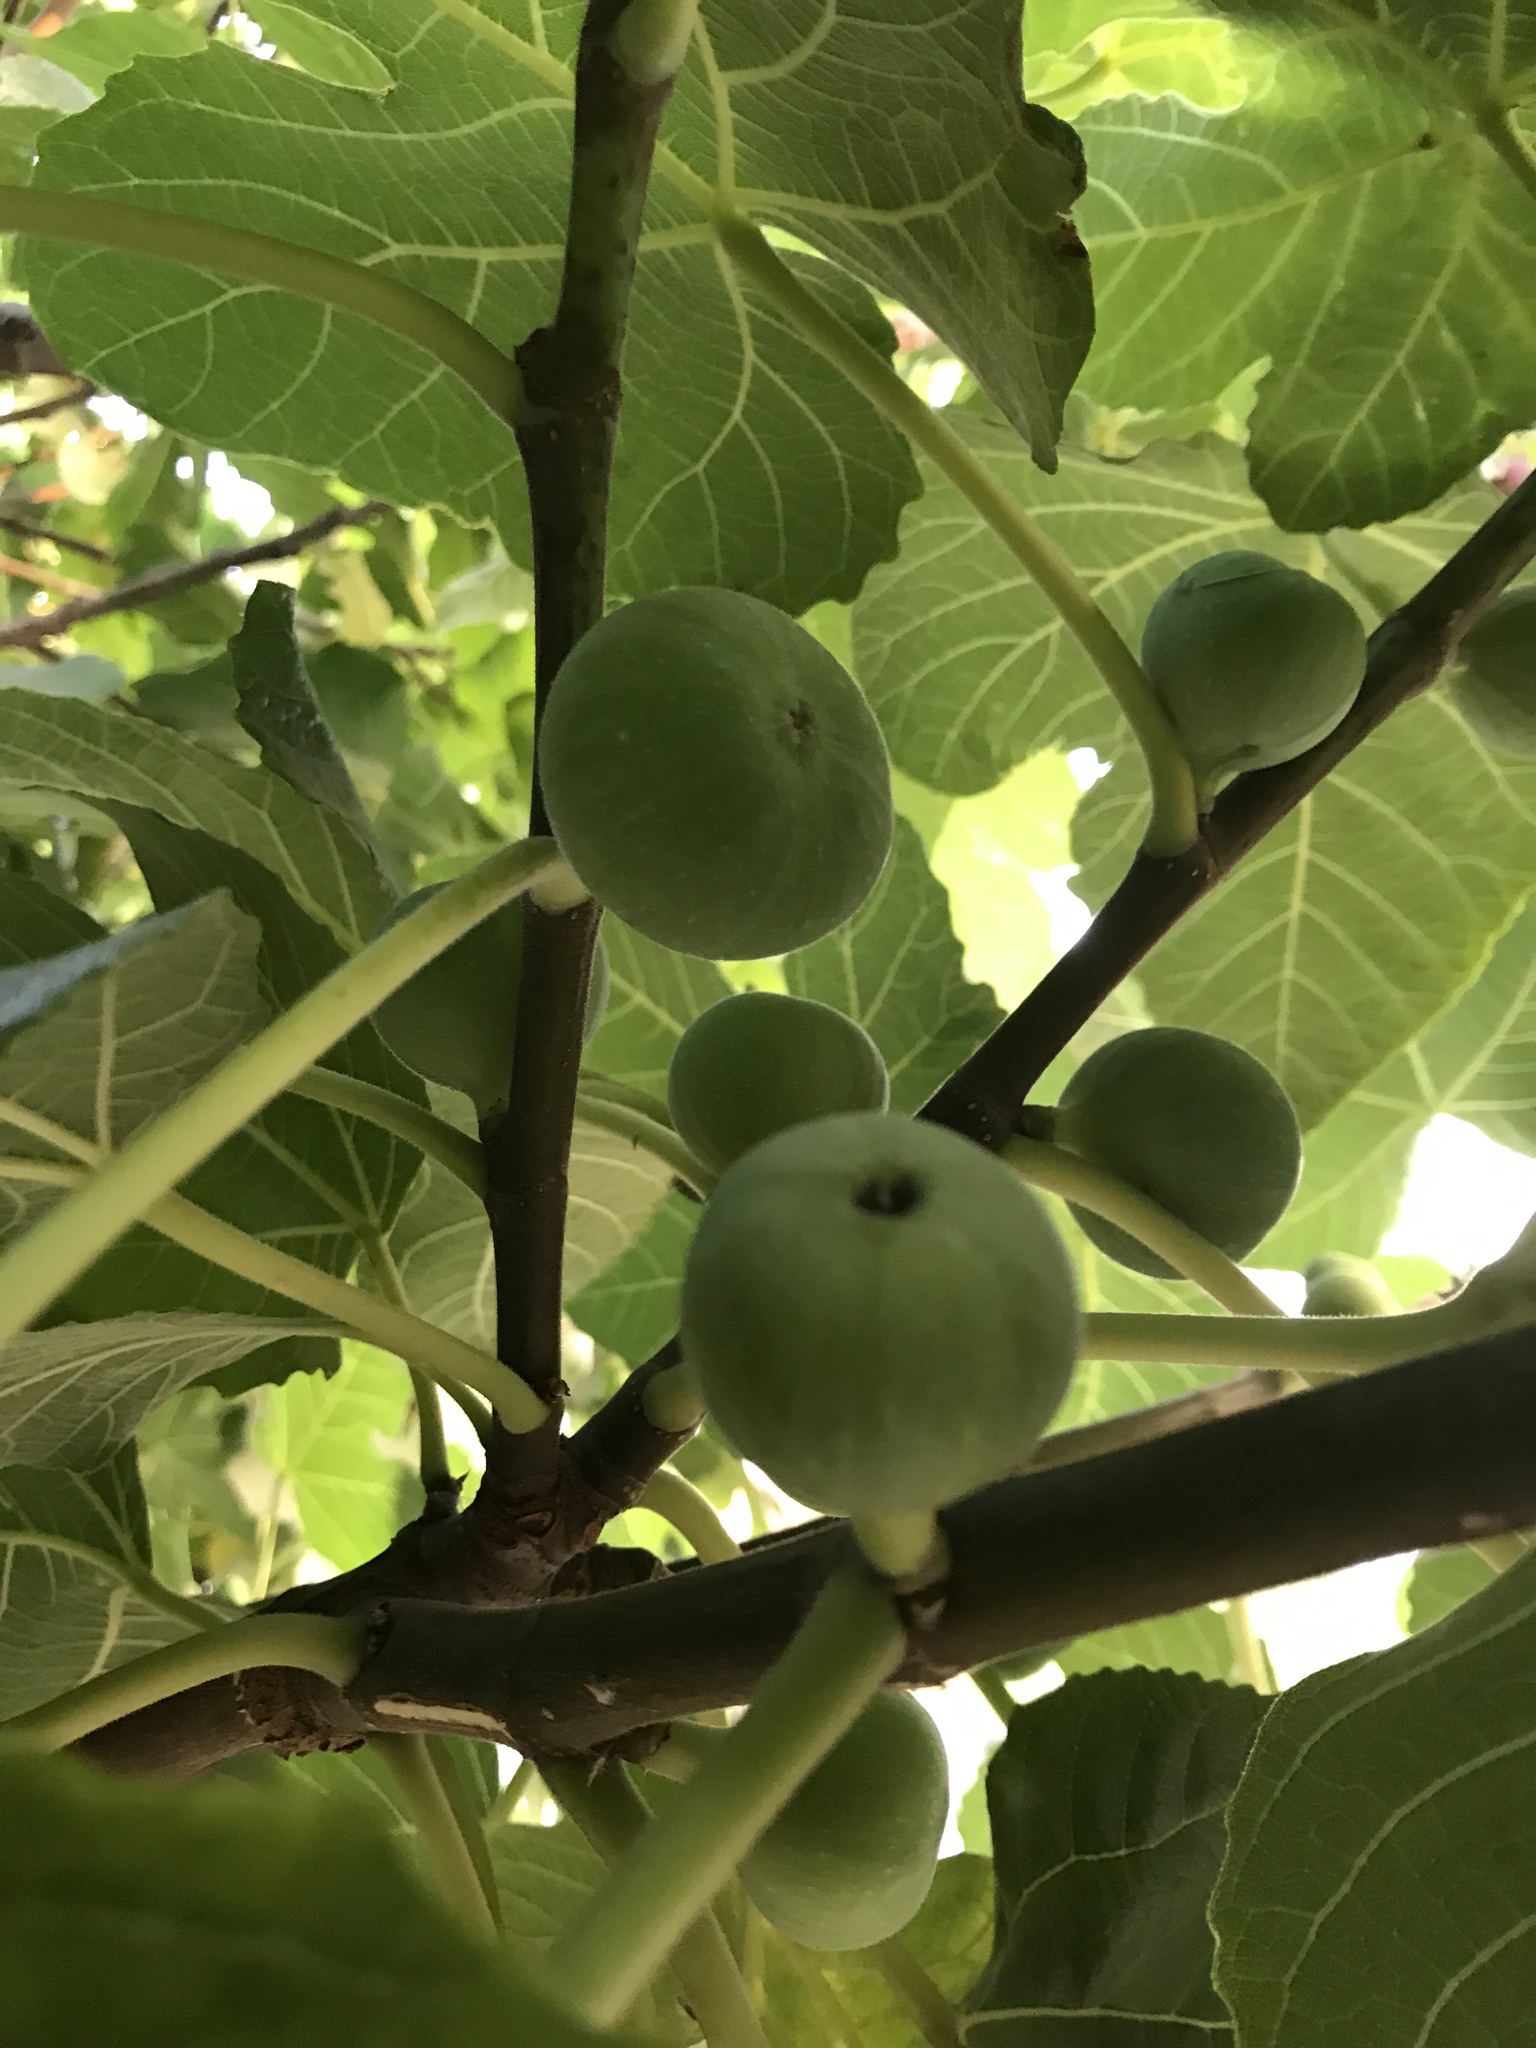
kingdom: Plantae
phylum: Tracheophyta
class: Magnoliopsida
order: Rosales
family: Moraceae
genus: Ficus
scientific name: Ficus carica
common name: Fig
